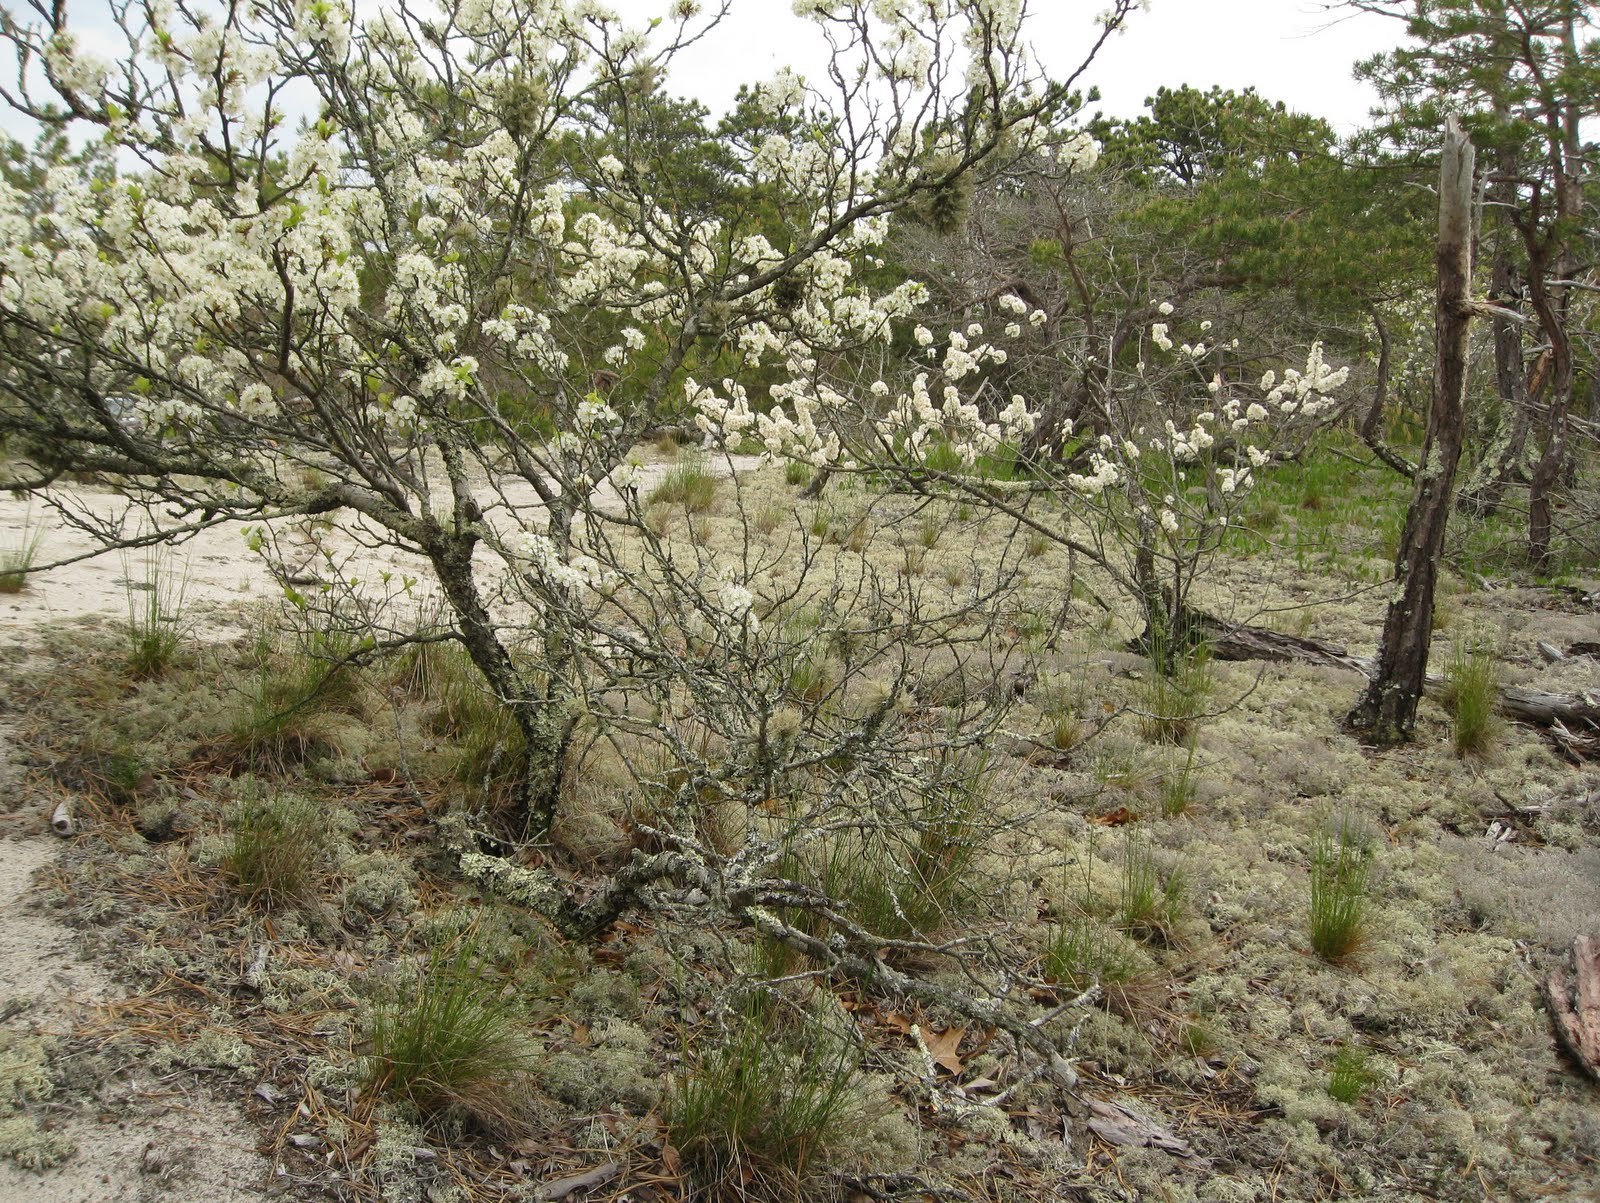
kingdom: Plantae
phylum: Tracheophyta
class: Magnoliopsida
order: Rosales
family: Rosaceae
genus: Prunus
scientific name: Prunus maritima
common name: Beach plum
